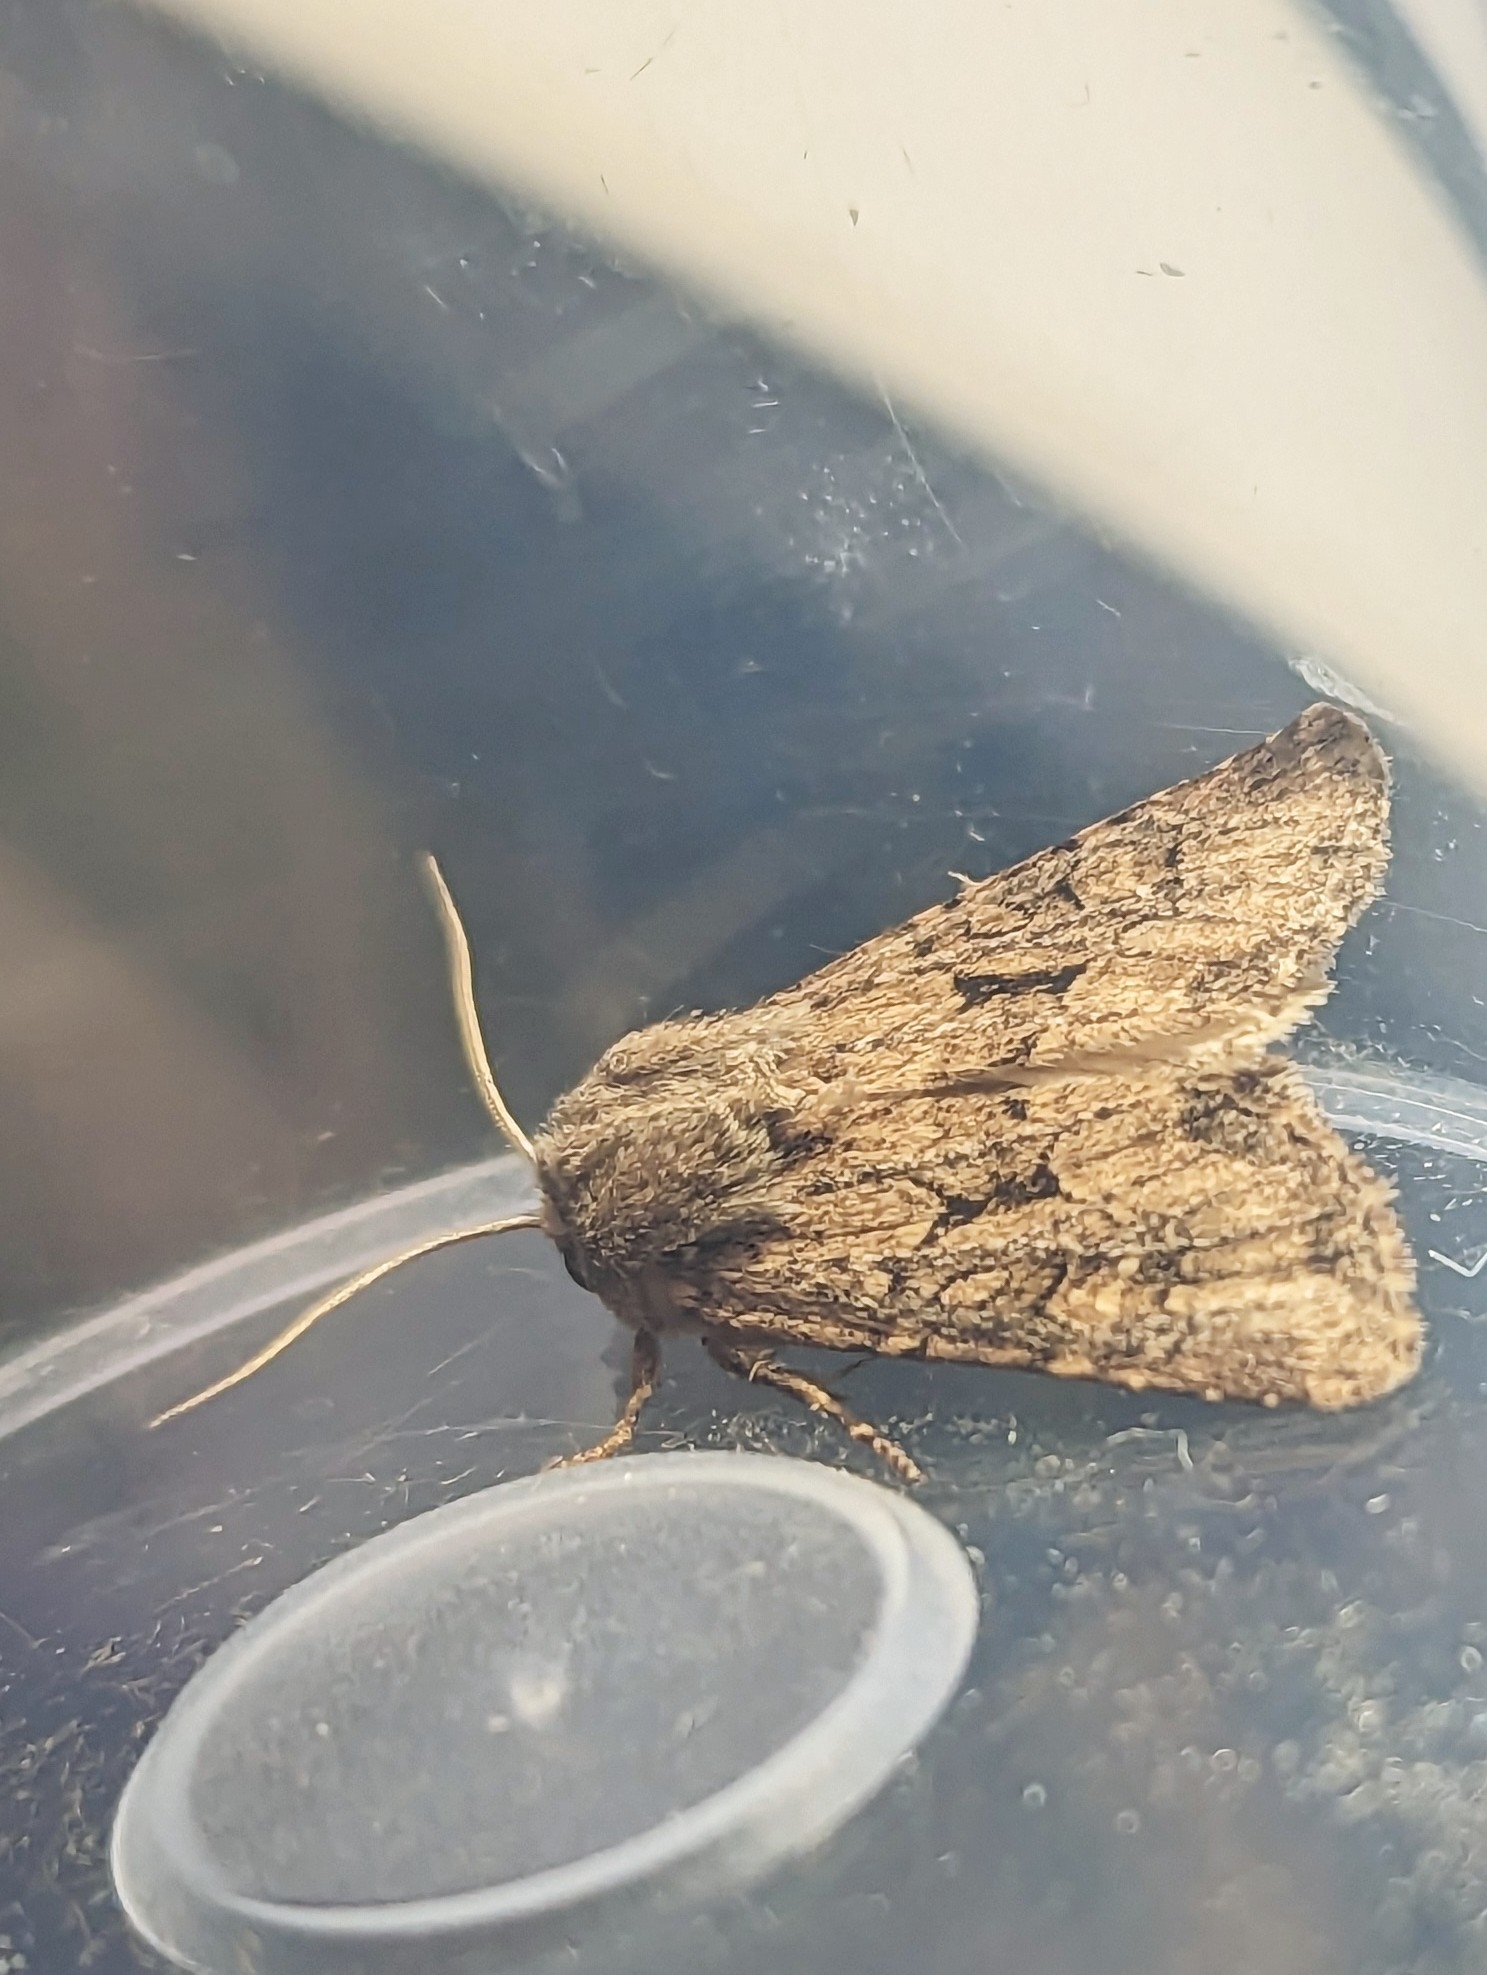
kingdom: Animalia
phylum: Arthropoda
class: Insecta
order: Lepidoptera
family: Noctuidae
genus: Luperina
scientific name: Luperina testacea
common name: Flounced rustic
